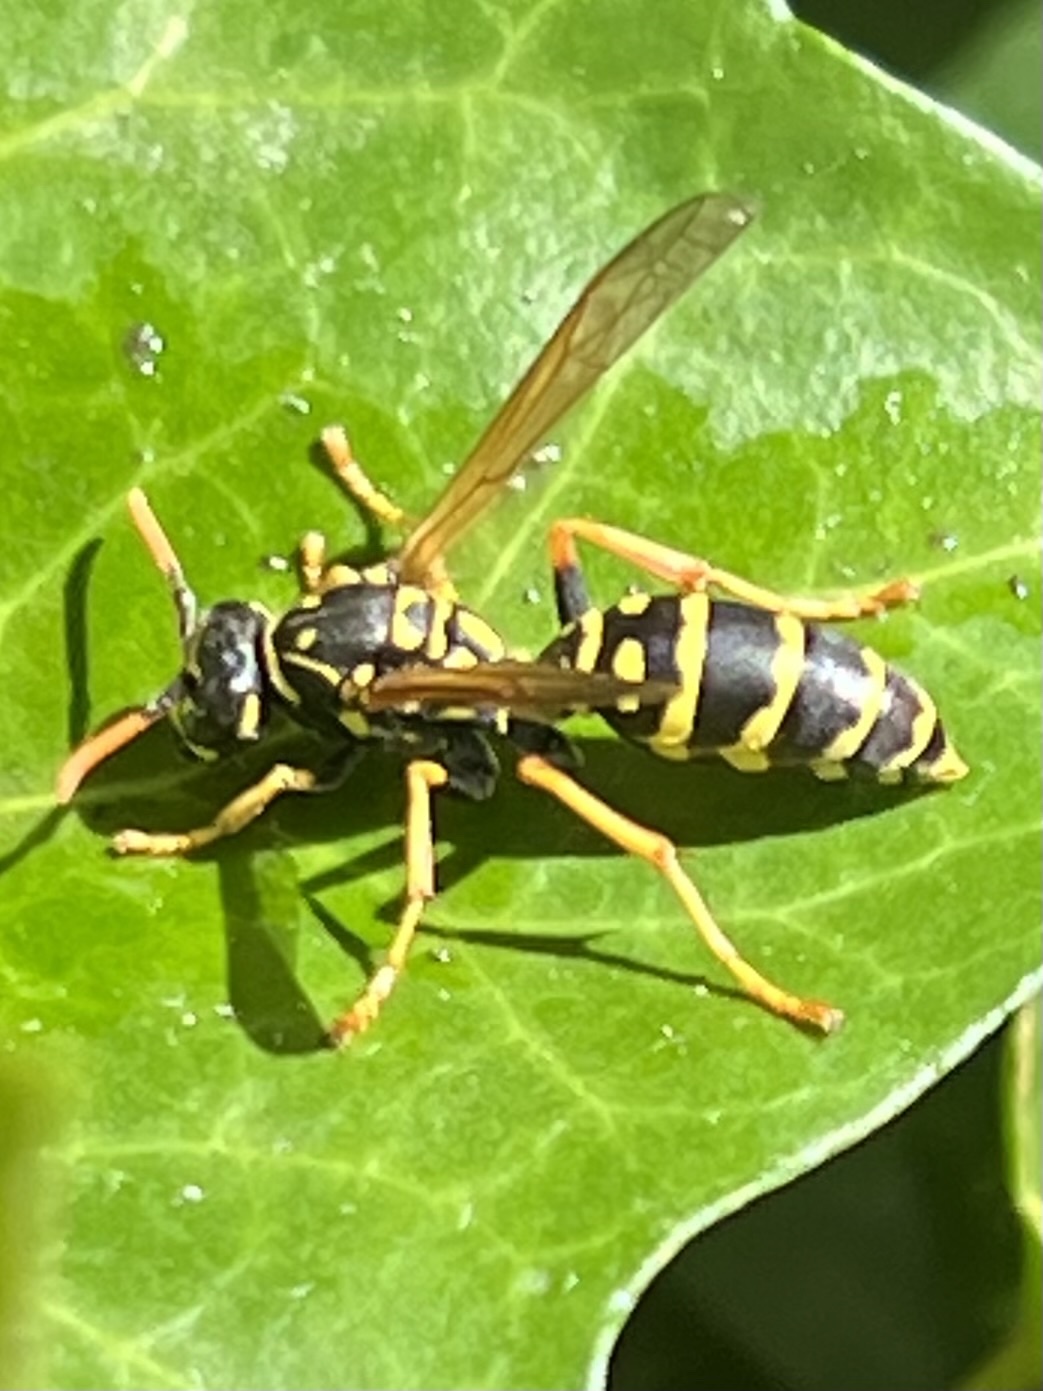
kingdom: Animalia
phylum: Arthropoda
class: Insecta
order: Hymenoptera
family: Eumenidae
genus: Polistes
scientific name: Polistes dominula
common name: Paper wasp
